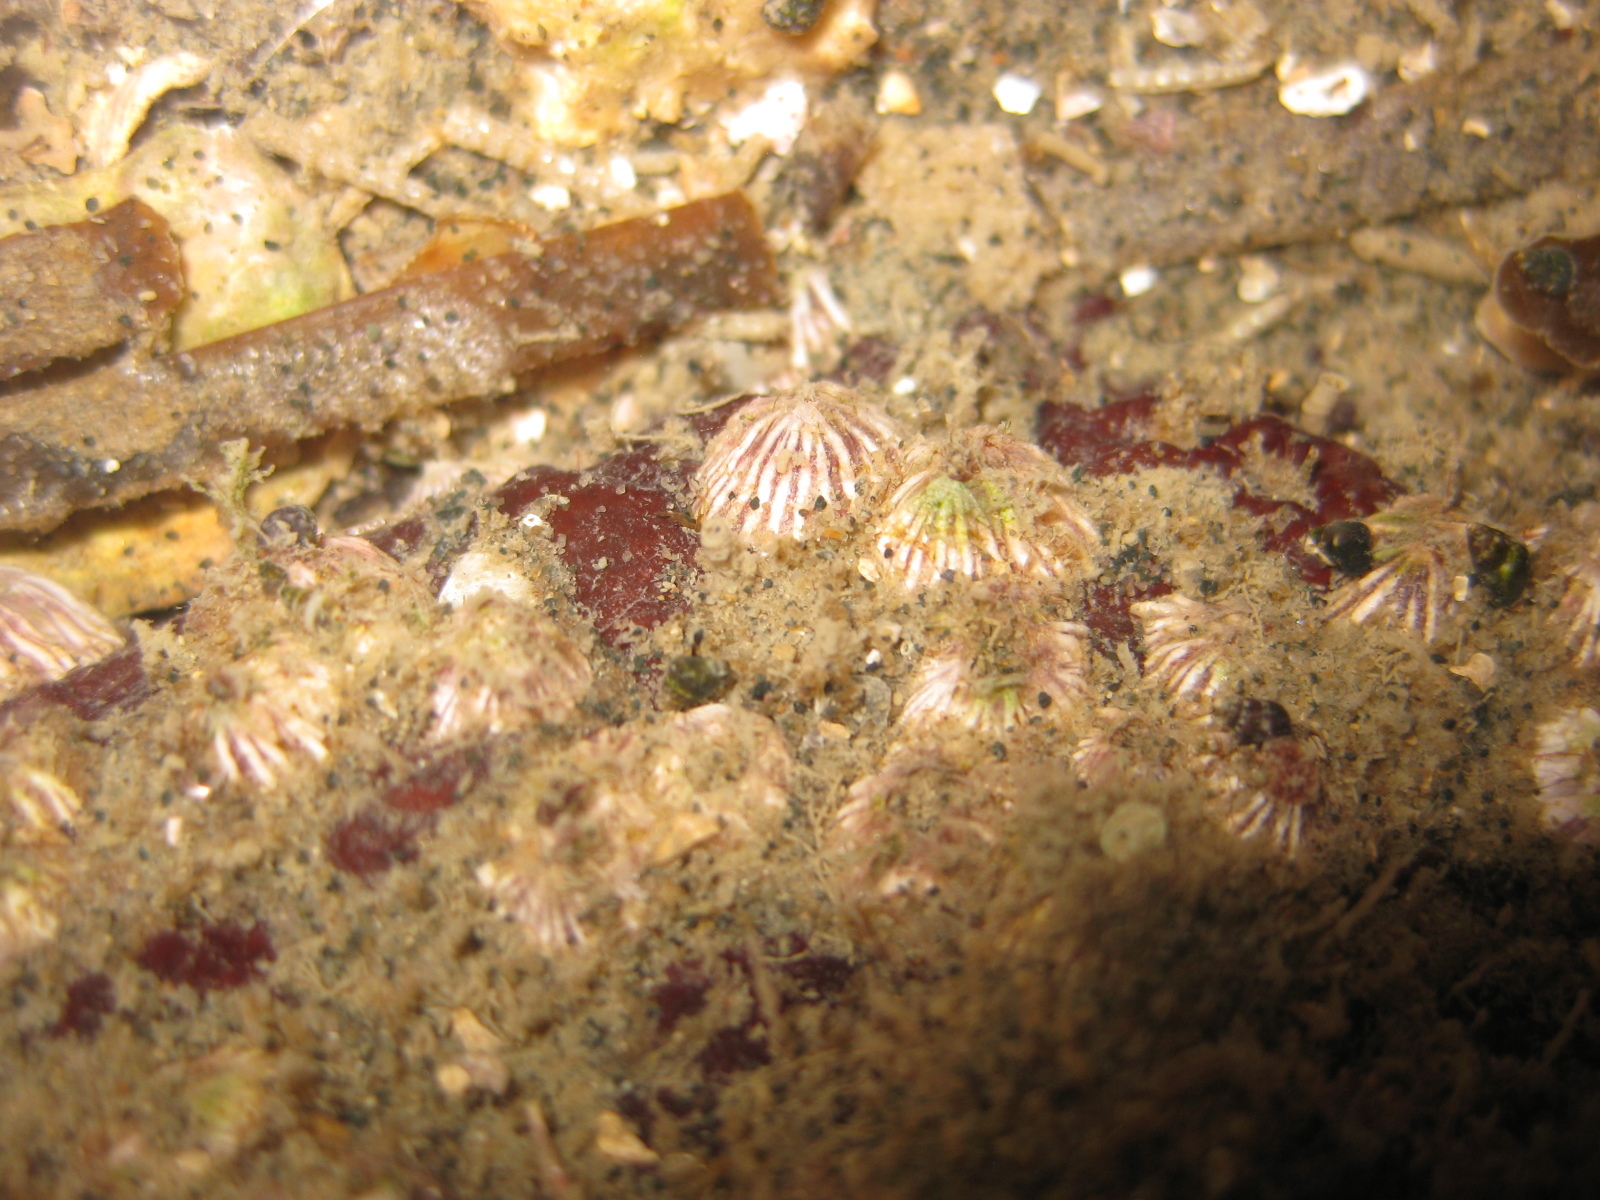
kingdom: Animalia
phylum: Arthropoda
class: Maxillopoda
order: Sessilia
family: Balanidae
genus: Balanus
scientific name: Balanus trigonus
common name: Triangle barnacle
